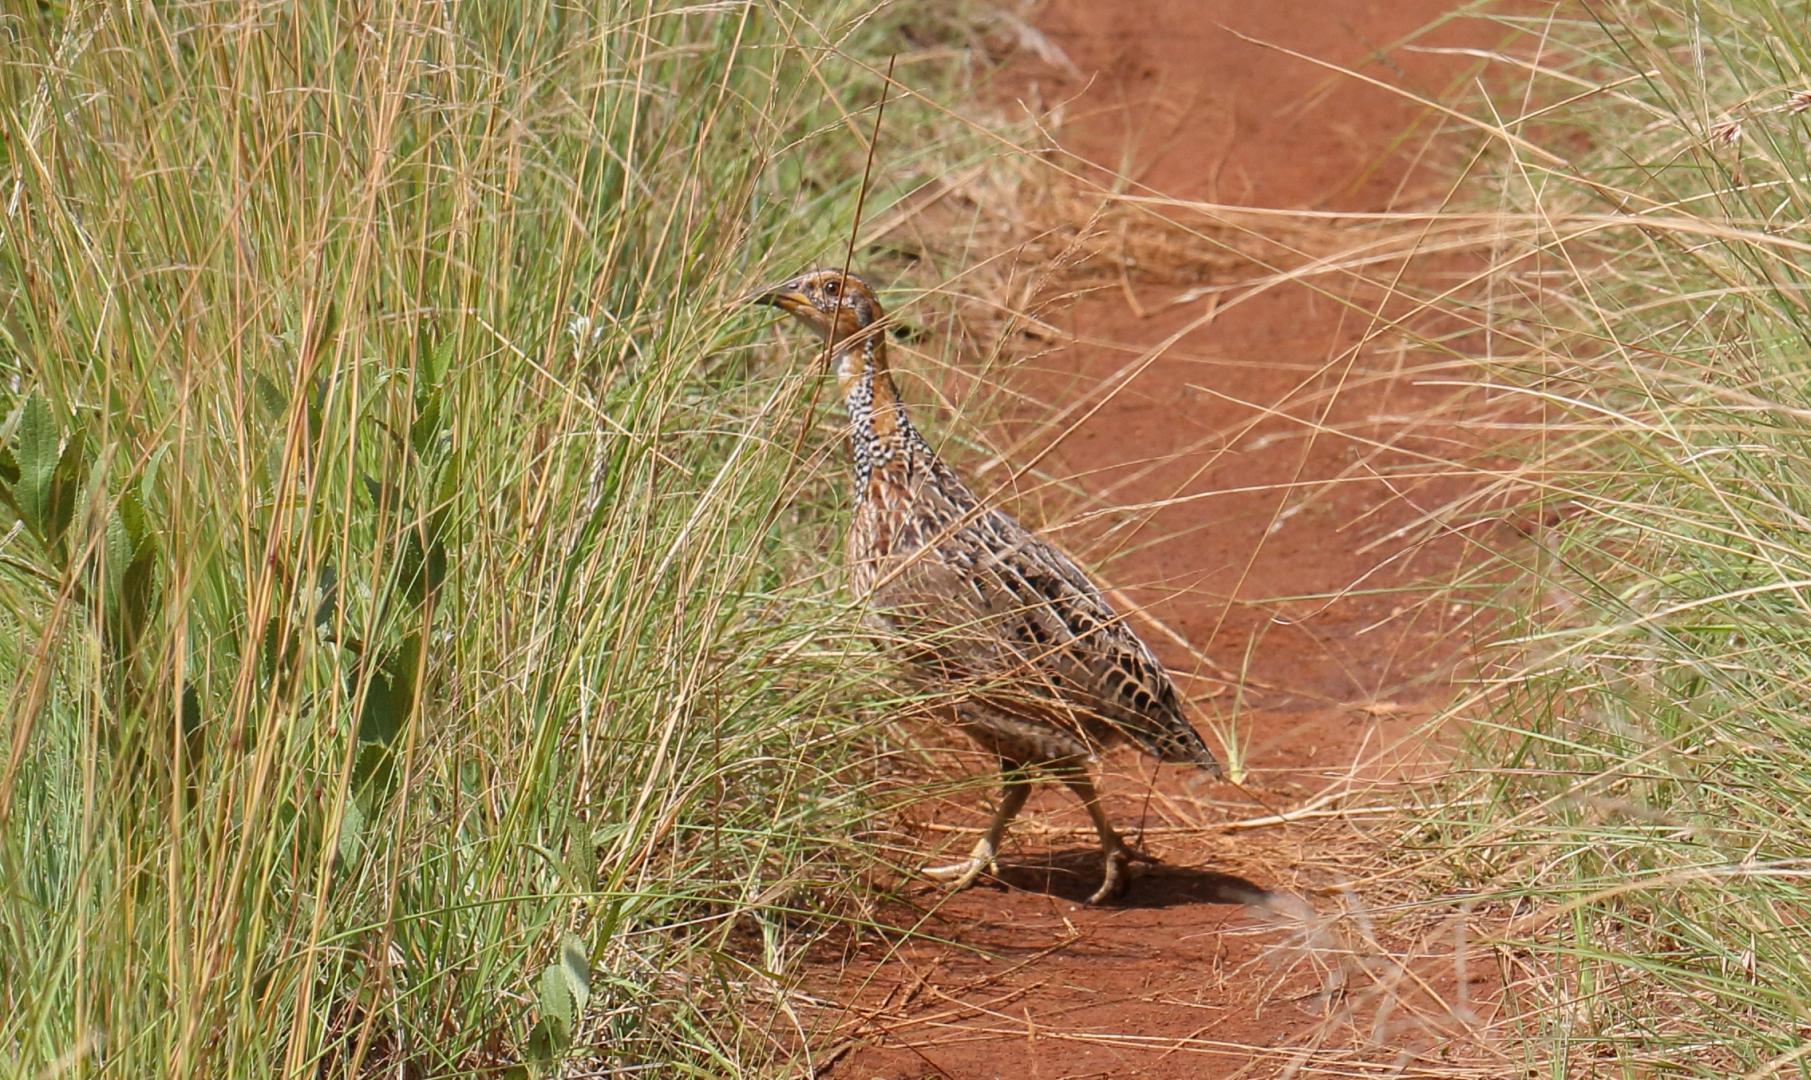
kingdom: Animalia
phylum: Chordata
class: Aves
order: Galliformes
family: Phasianidae
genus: Scleroptila
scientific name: Scleroptila levaillantii
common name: Red-winged francolin
